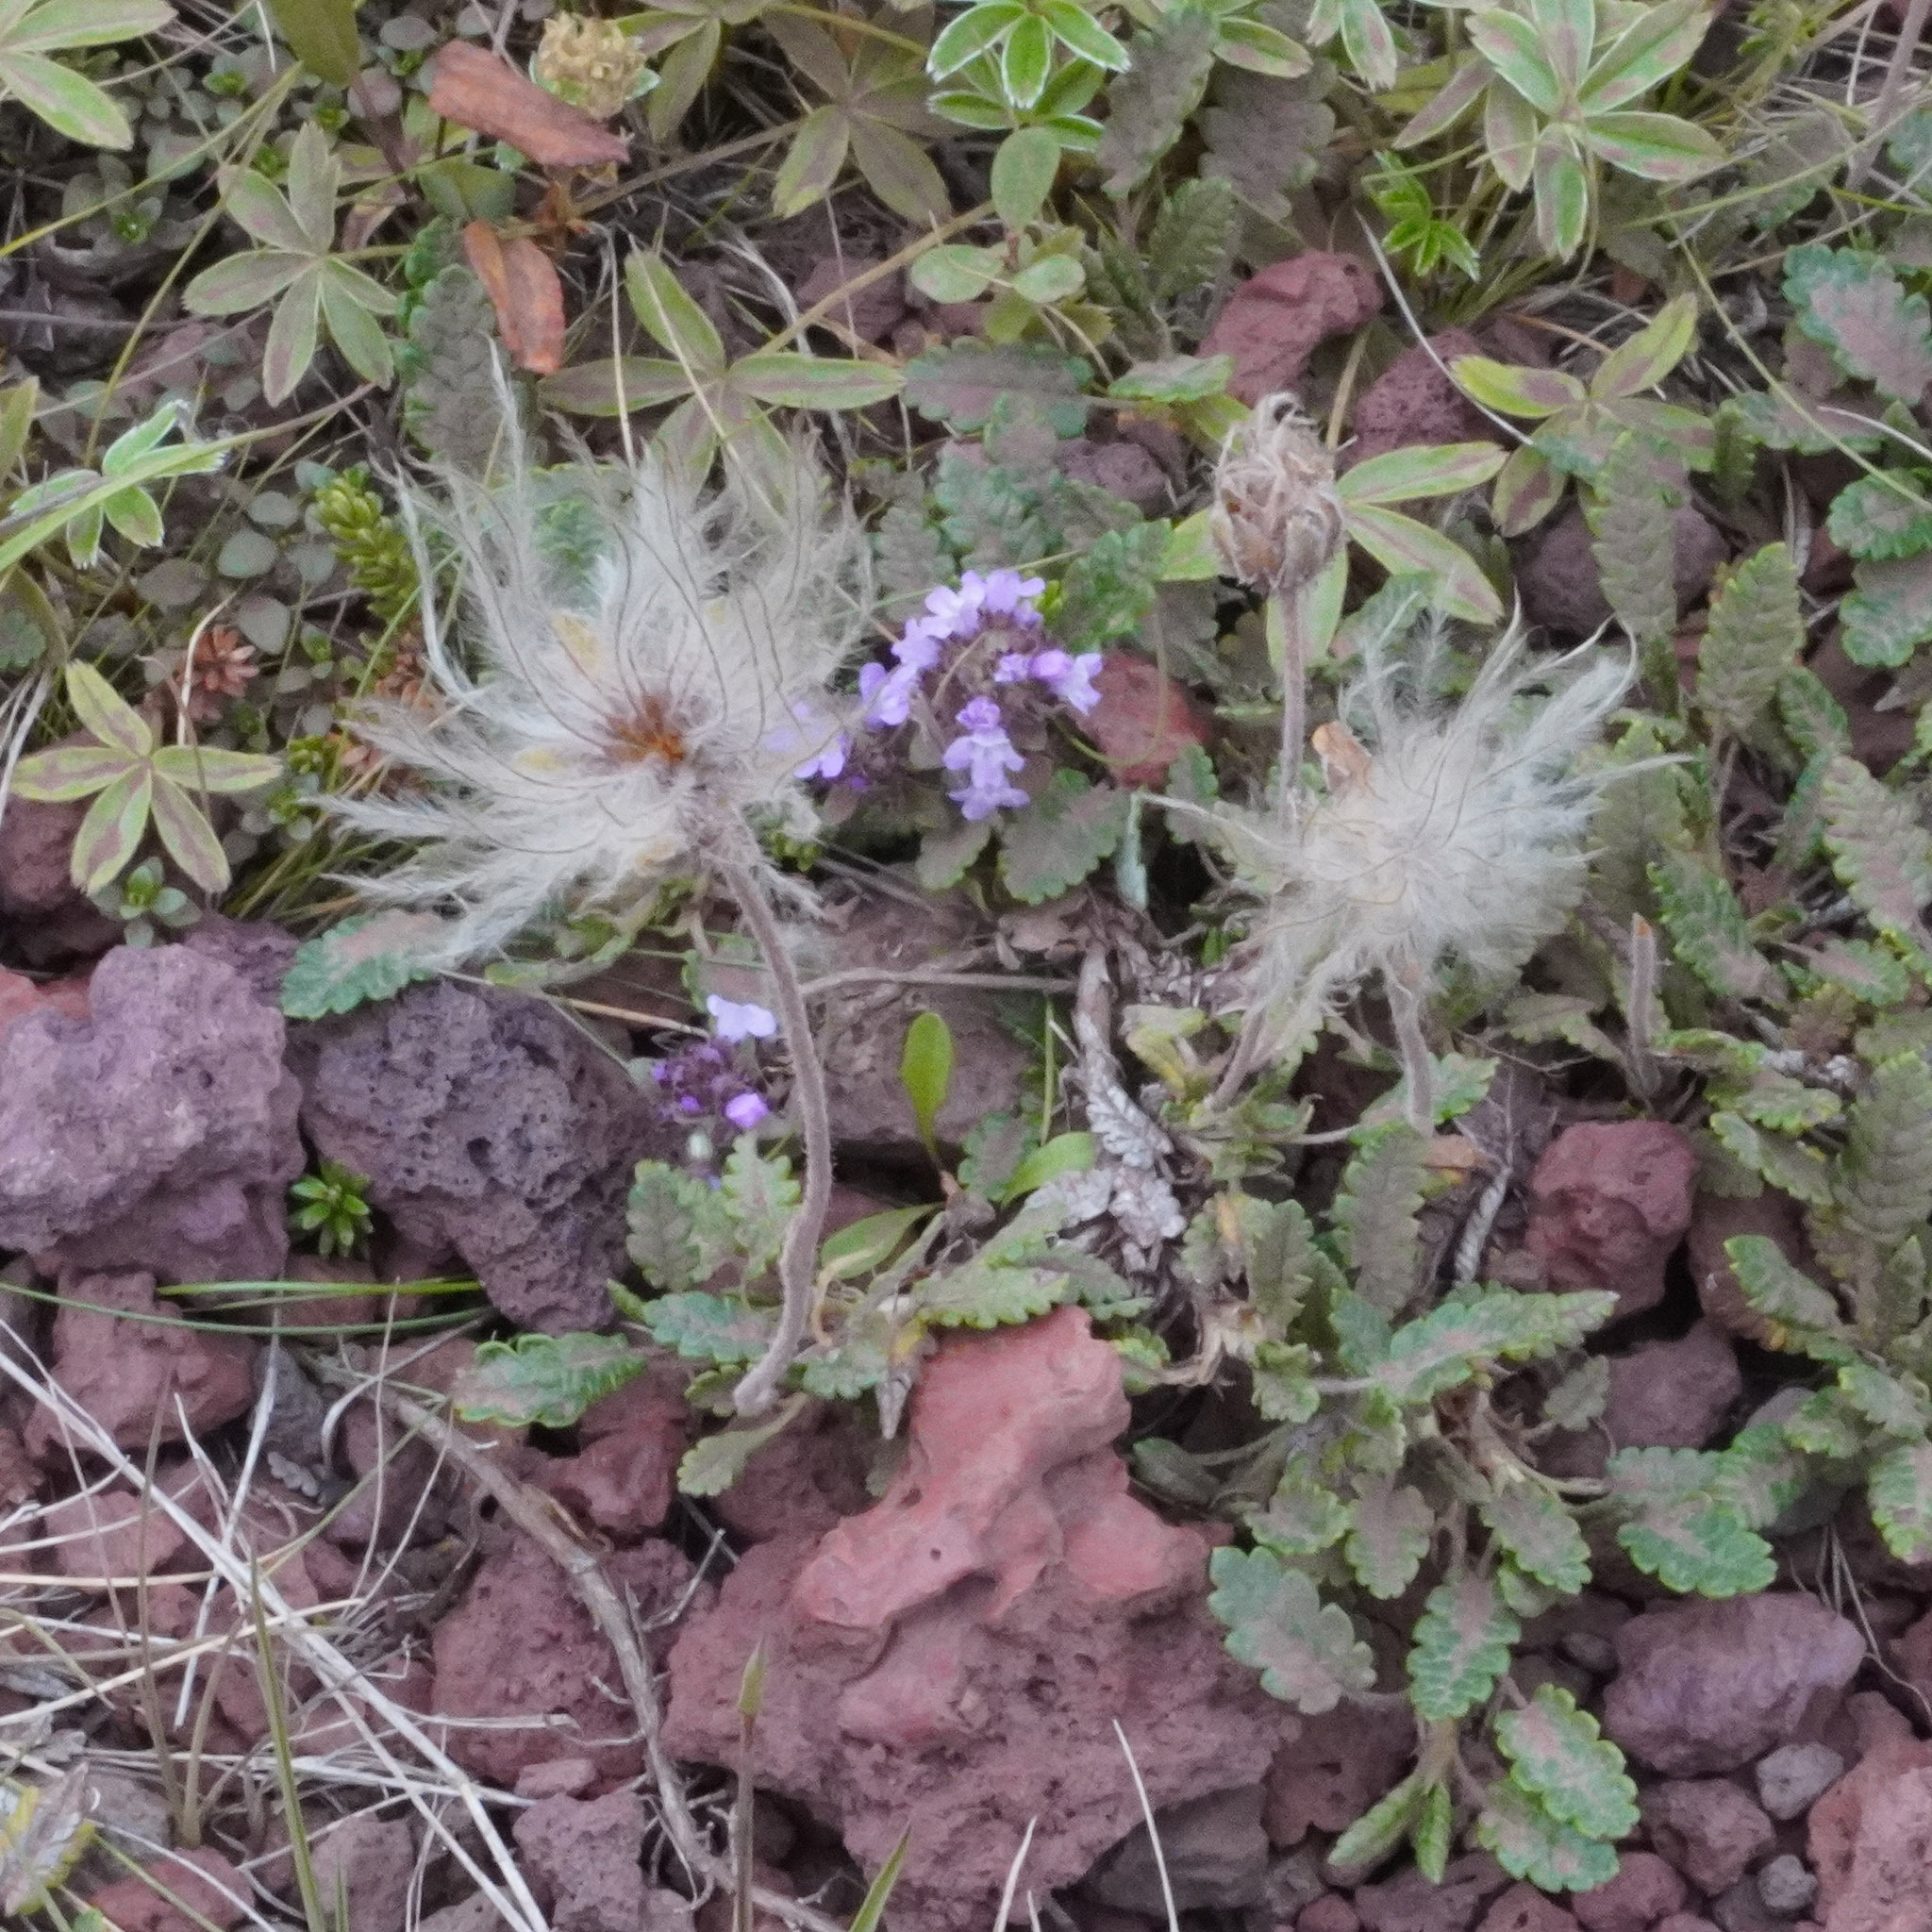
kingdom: Plantae
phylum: Tracheophyta
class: Magnoliopsida
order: Rosales
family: Rosaceae
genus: Dryas
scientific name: Dryas octopetala
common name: Eight-petal mountain-avens
